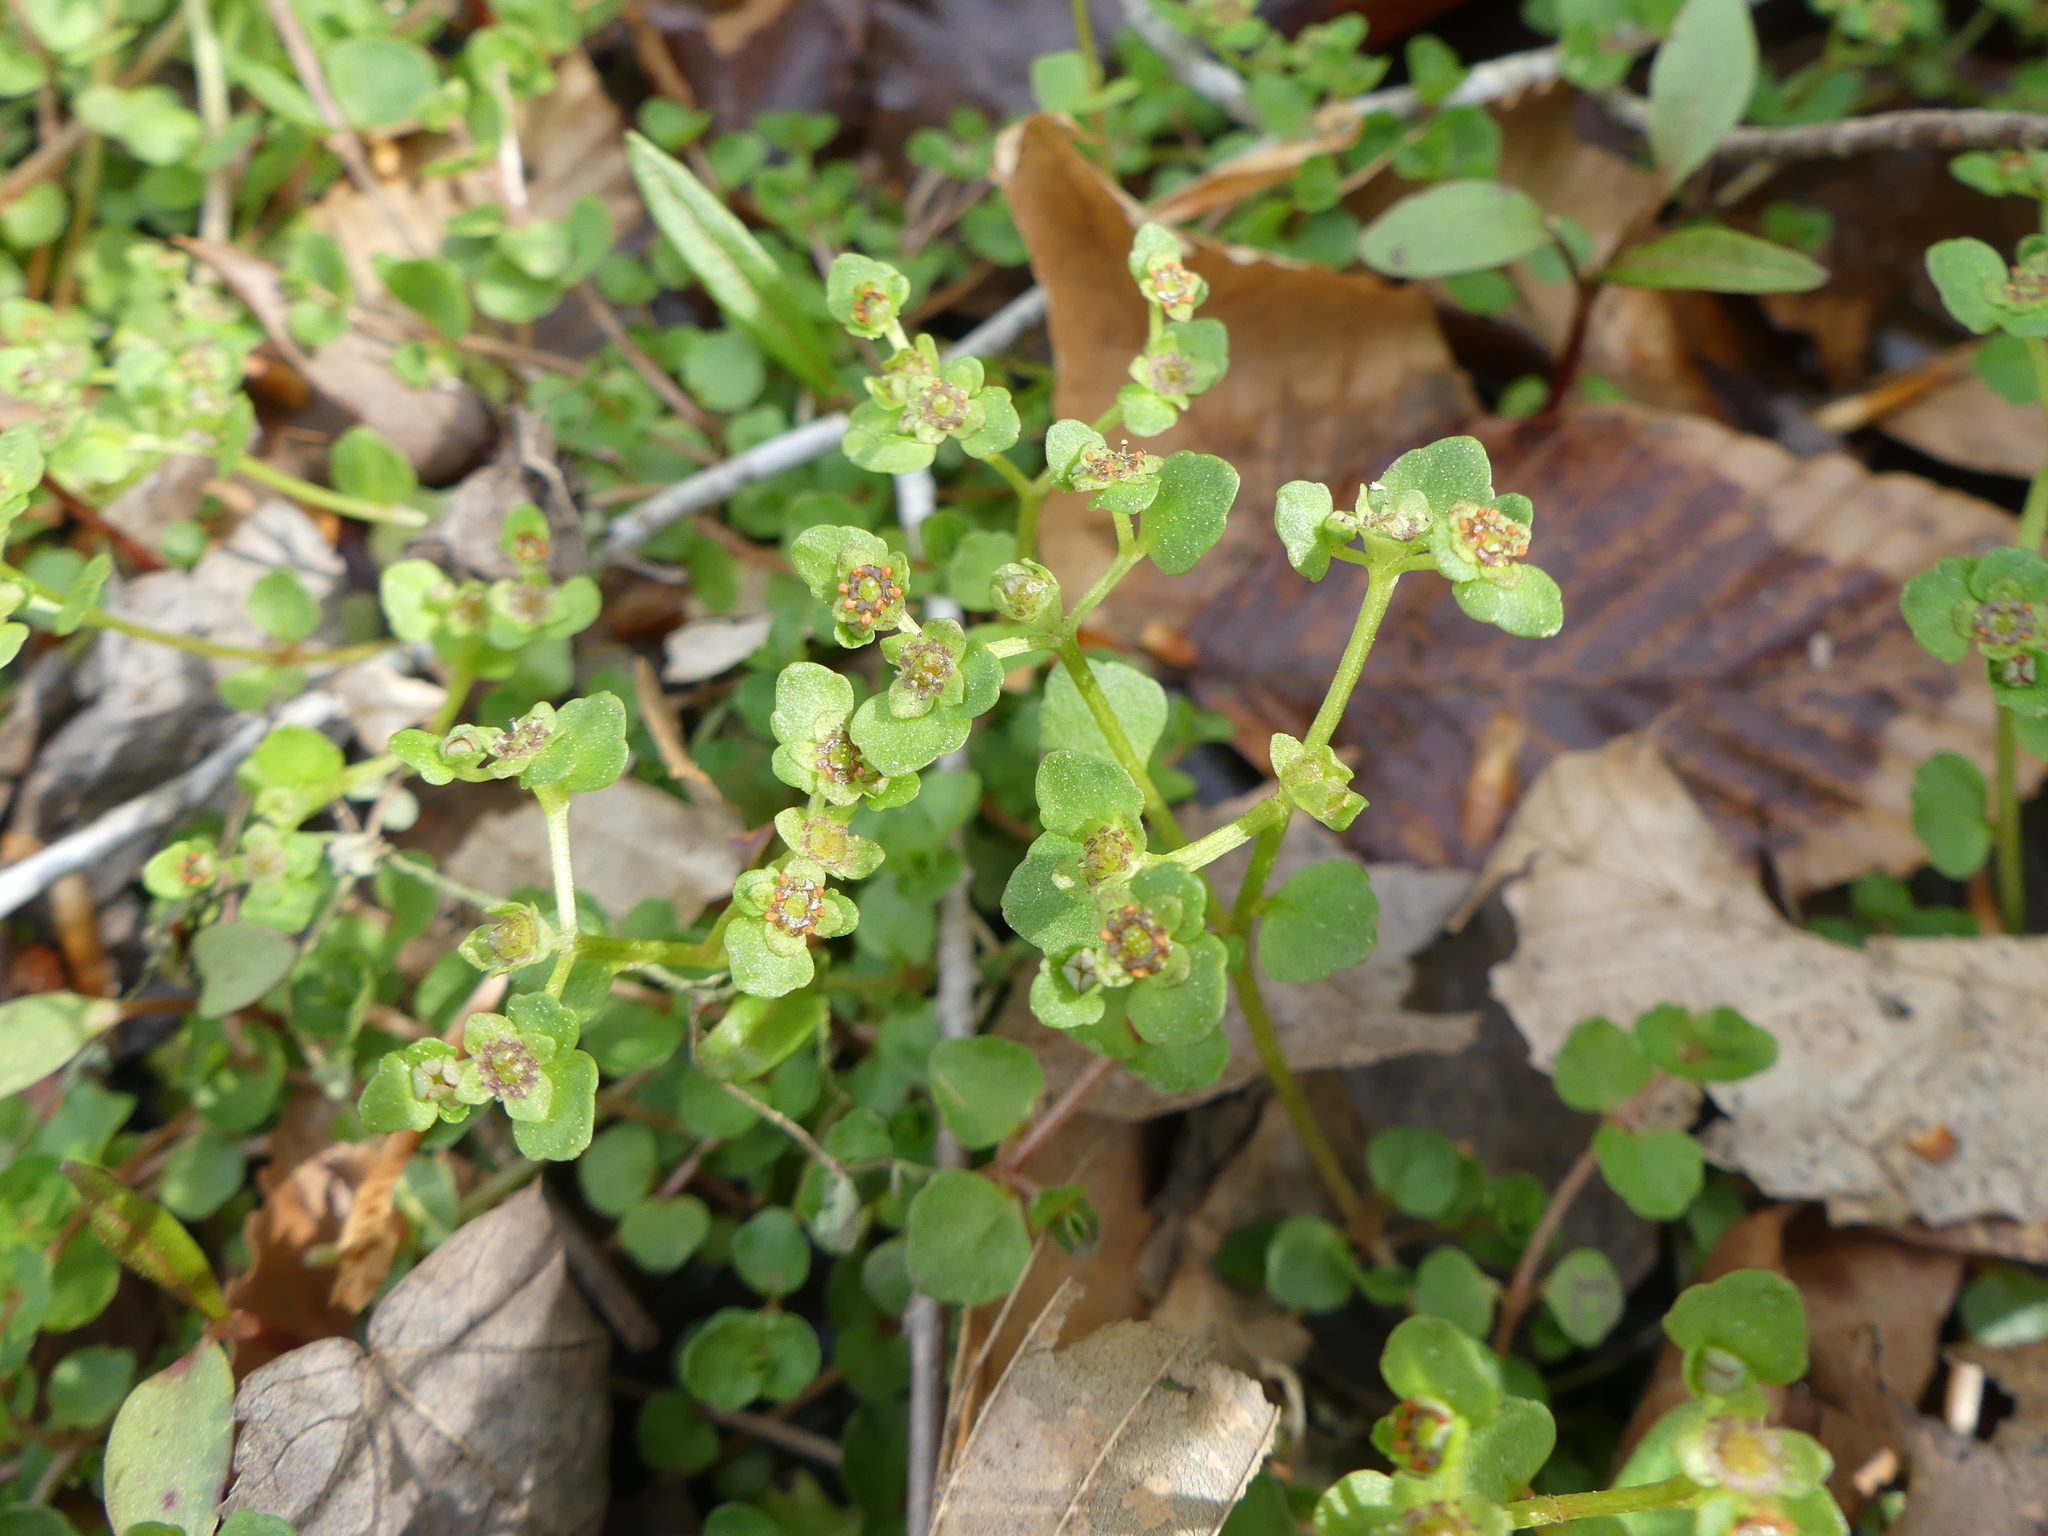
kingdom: Plantae
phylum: Tracheophyta
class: Magnoliopsida
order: Saxifragales
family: Saxifragaceae
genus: Chrysosplenium
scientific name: Chrysosplenium americanum
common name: American golden-saxifrage
